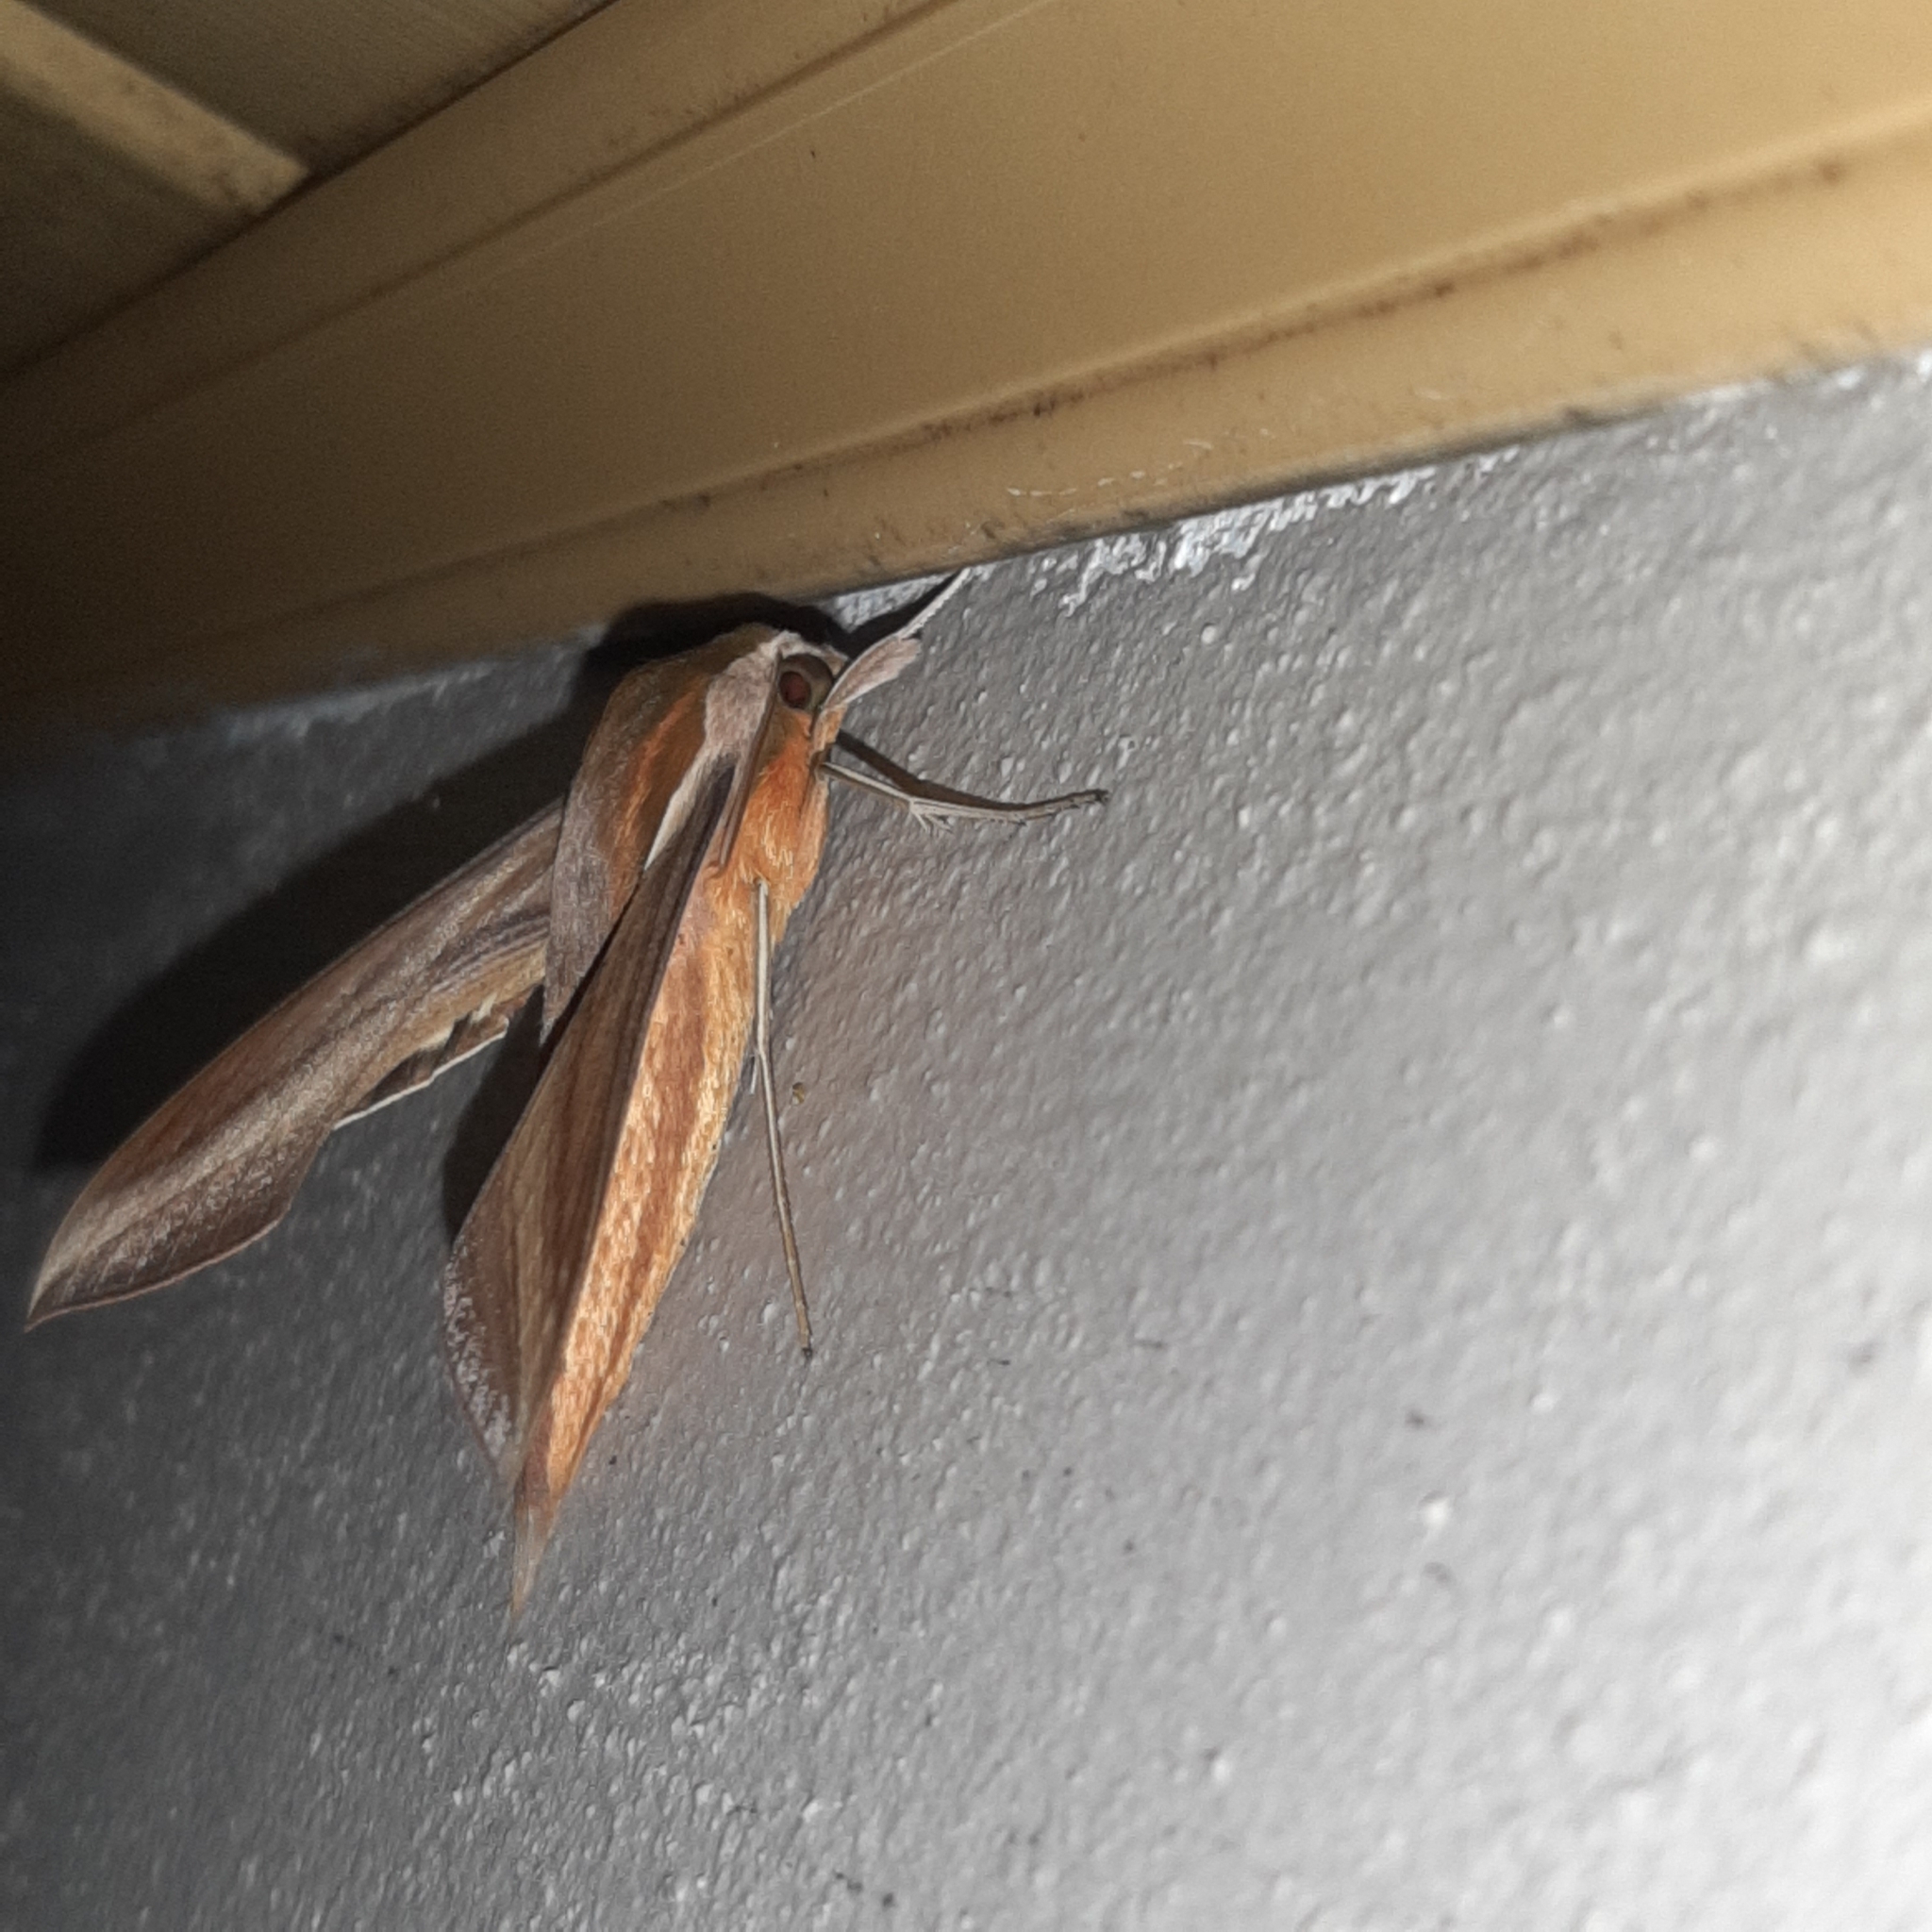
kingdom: Animalia
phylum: Arthropoda
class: Insecta
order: Lepidoptera
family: Sphingidae
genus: Xylophanes
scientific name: Xylophanes tersa
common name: Tersa sphinx
